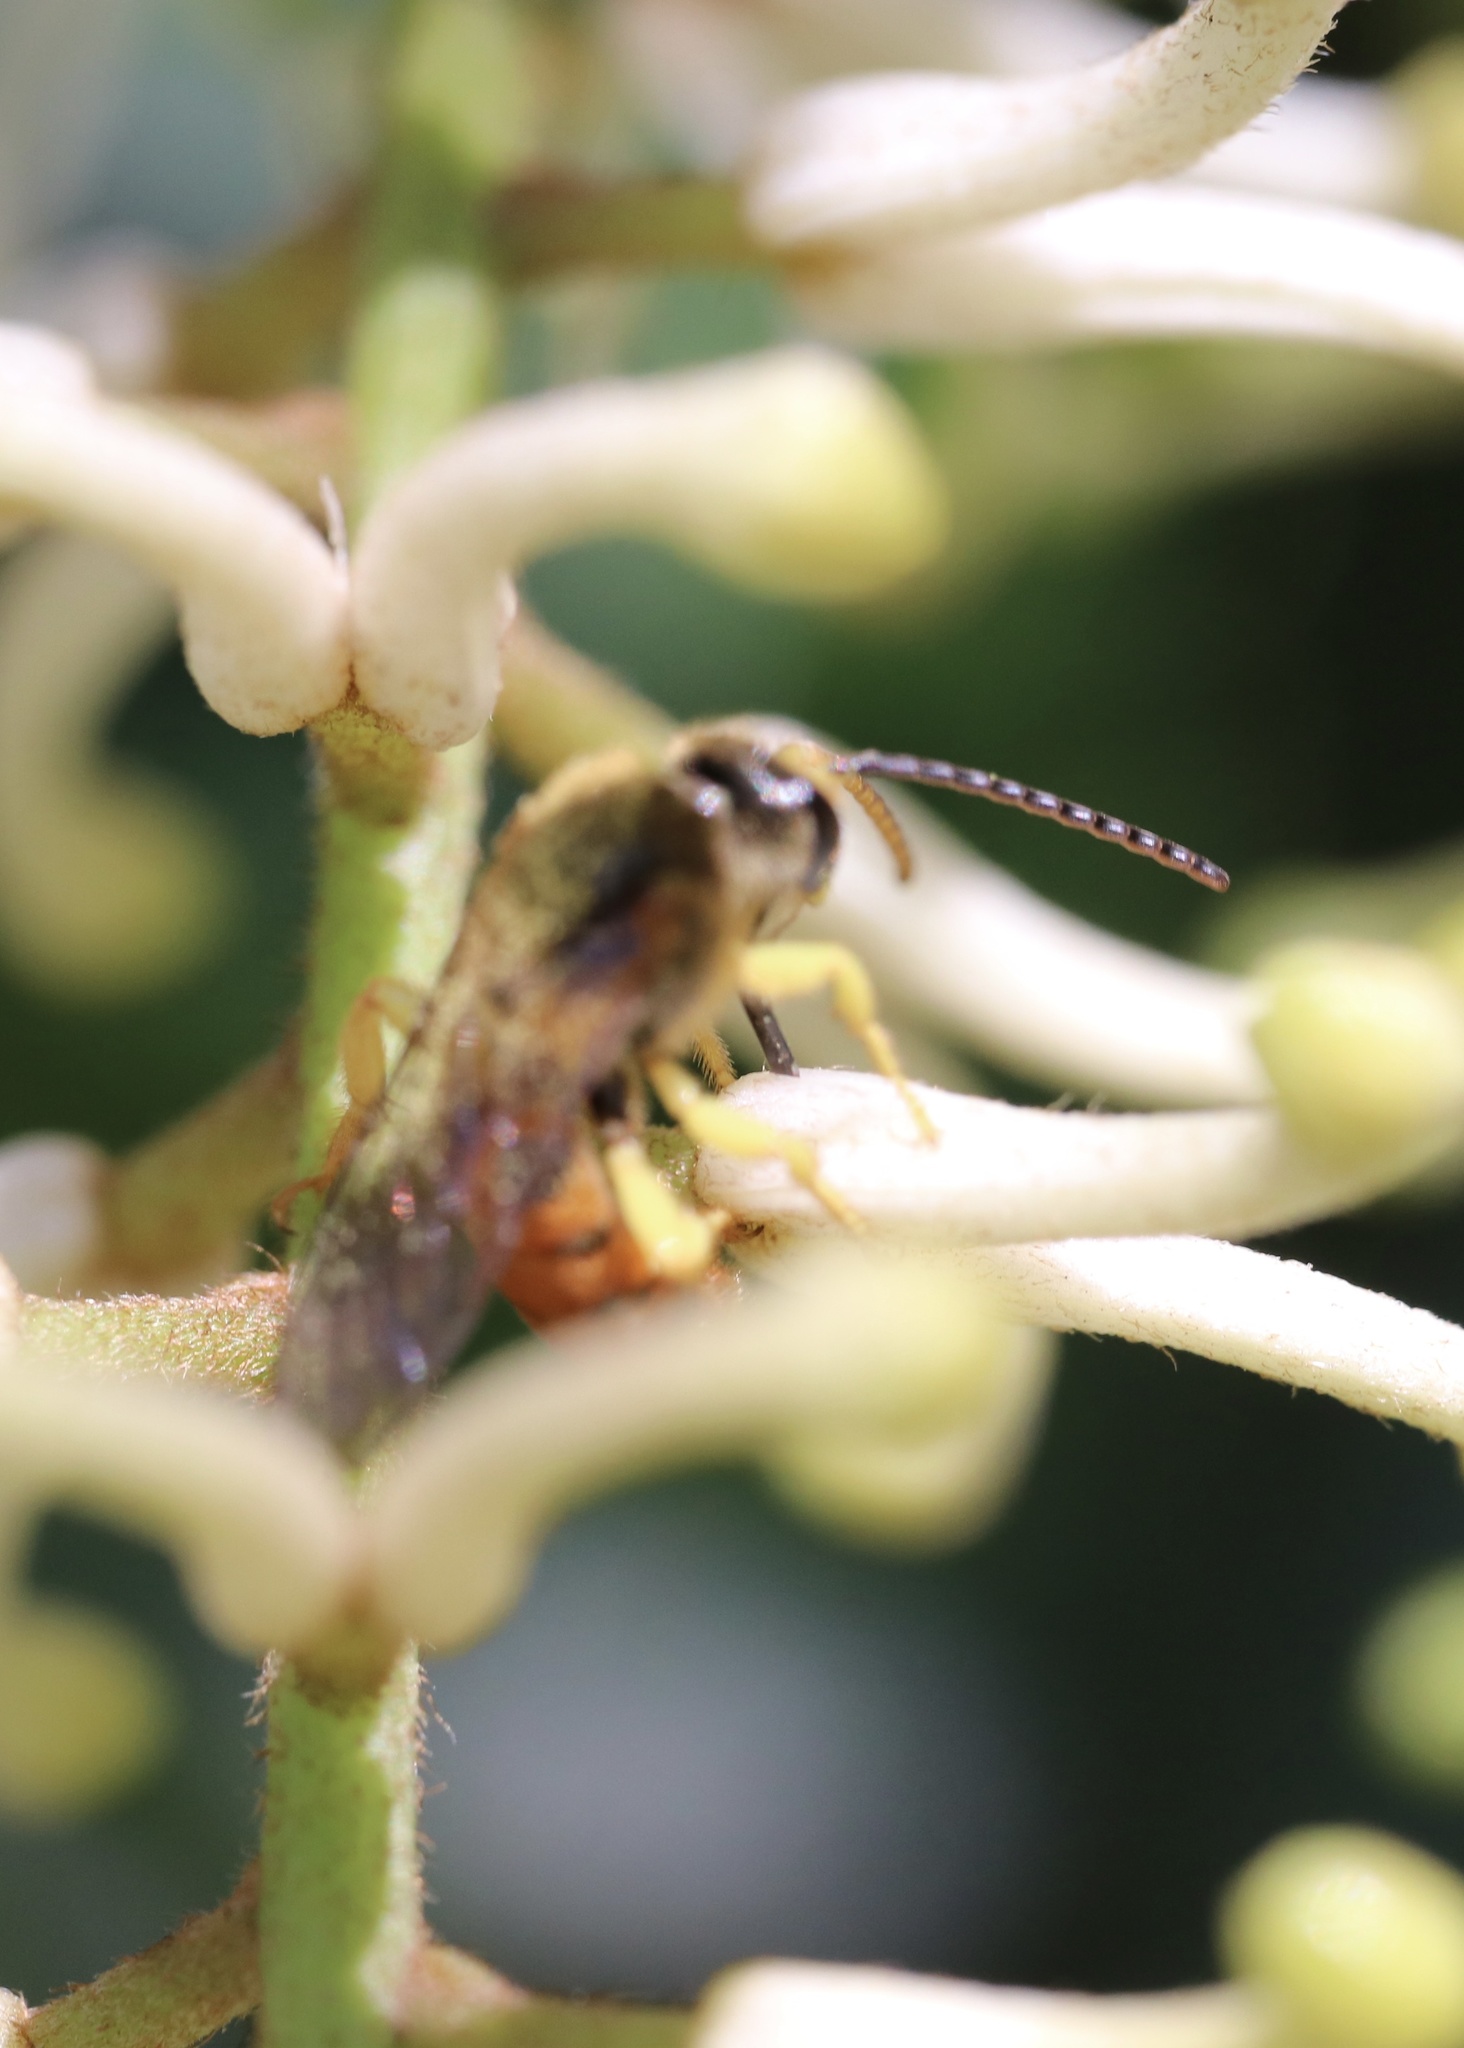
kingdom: Animalia
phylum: Arthropoda
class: Insecta
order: Hymenoptera
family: Halictidae
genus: Ruizantheda
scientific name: Ruizantheda proxima
